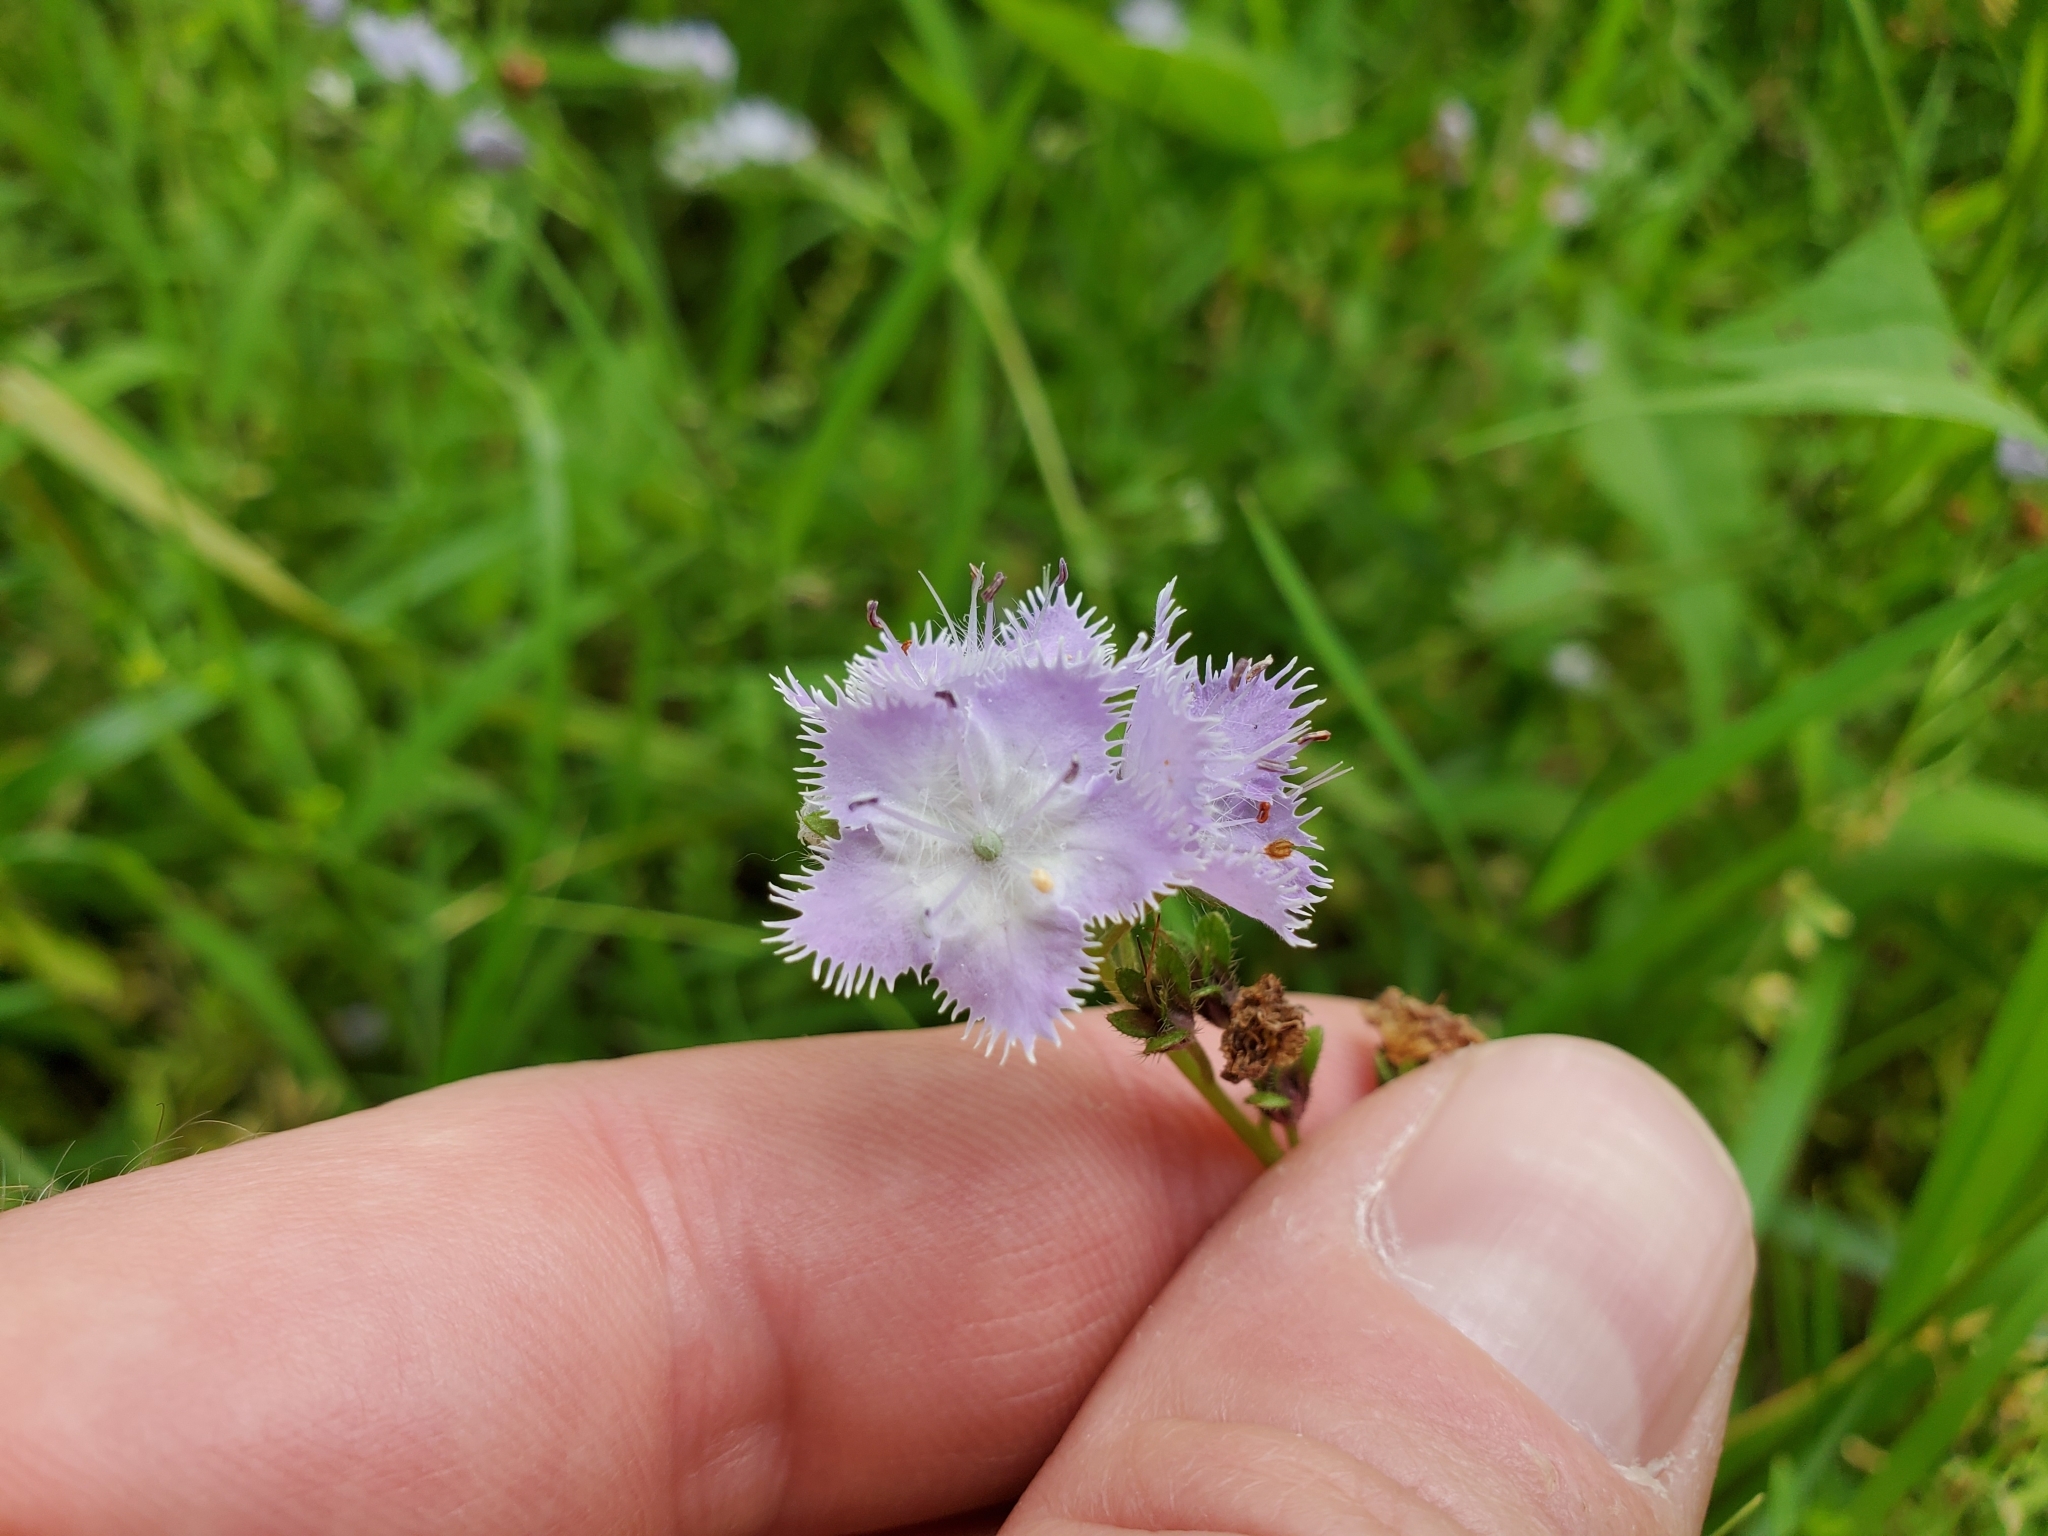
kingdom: Plantae
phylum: Tracheophyta
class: Magnoliopsida
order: Boraginales
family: Hydrophyllaceae
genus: Phacelia
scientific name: Phacelia purshii
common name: Miami-mist
